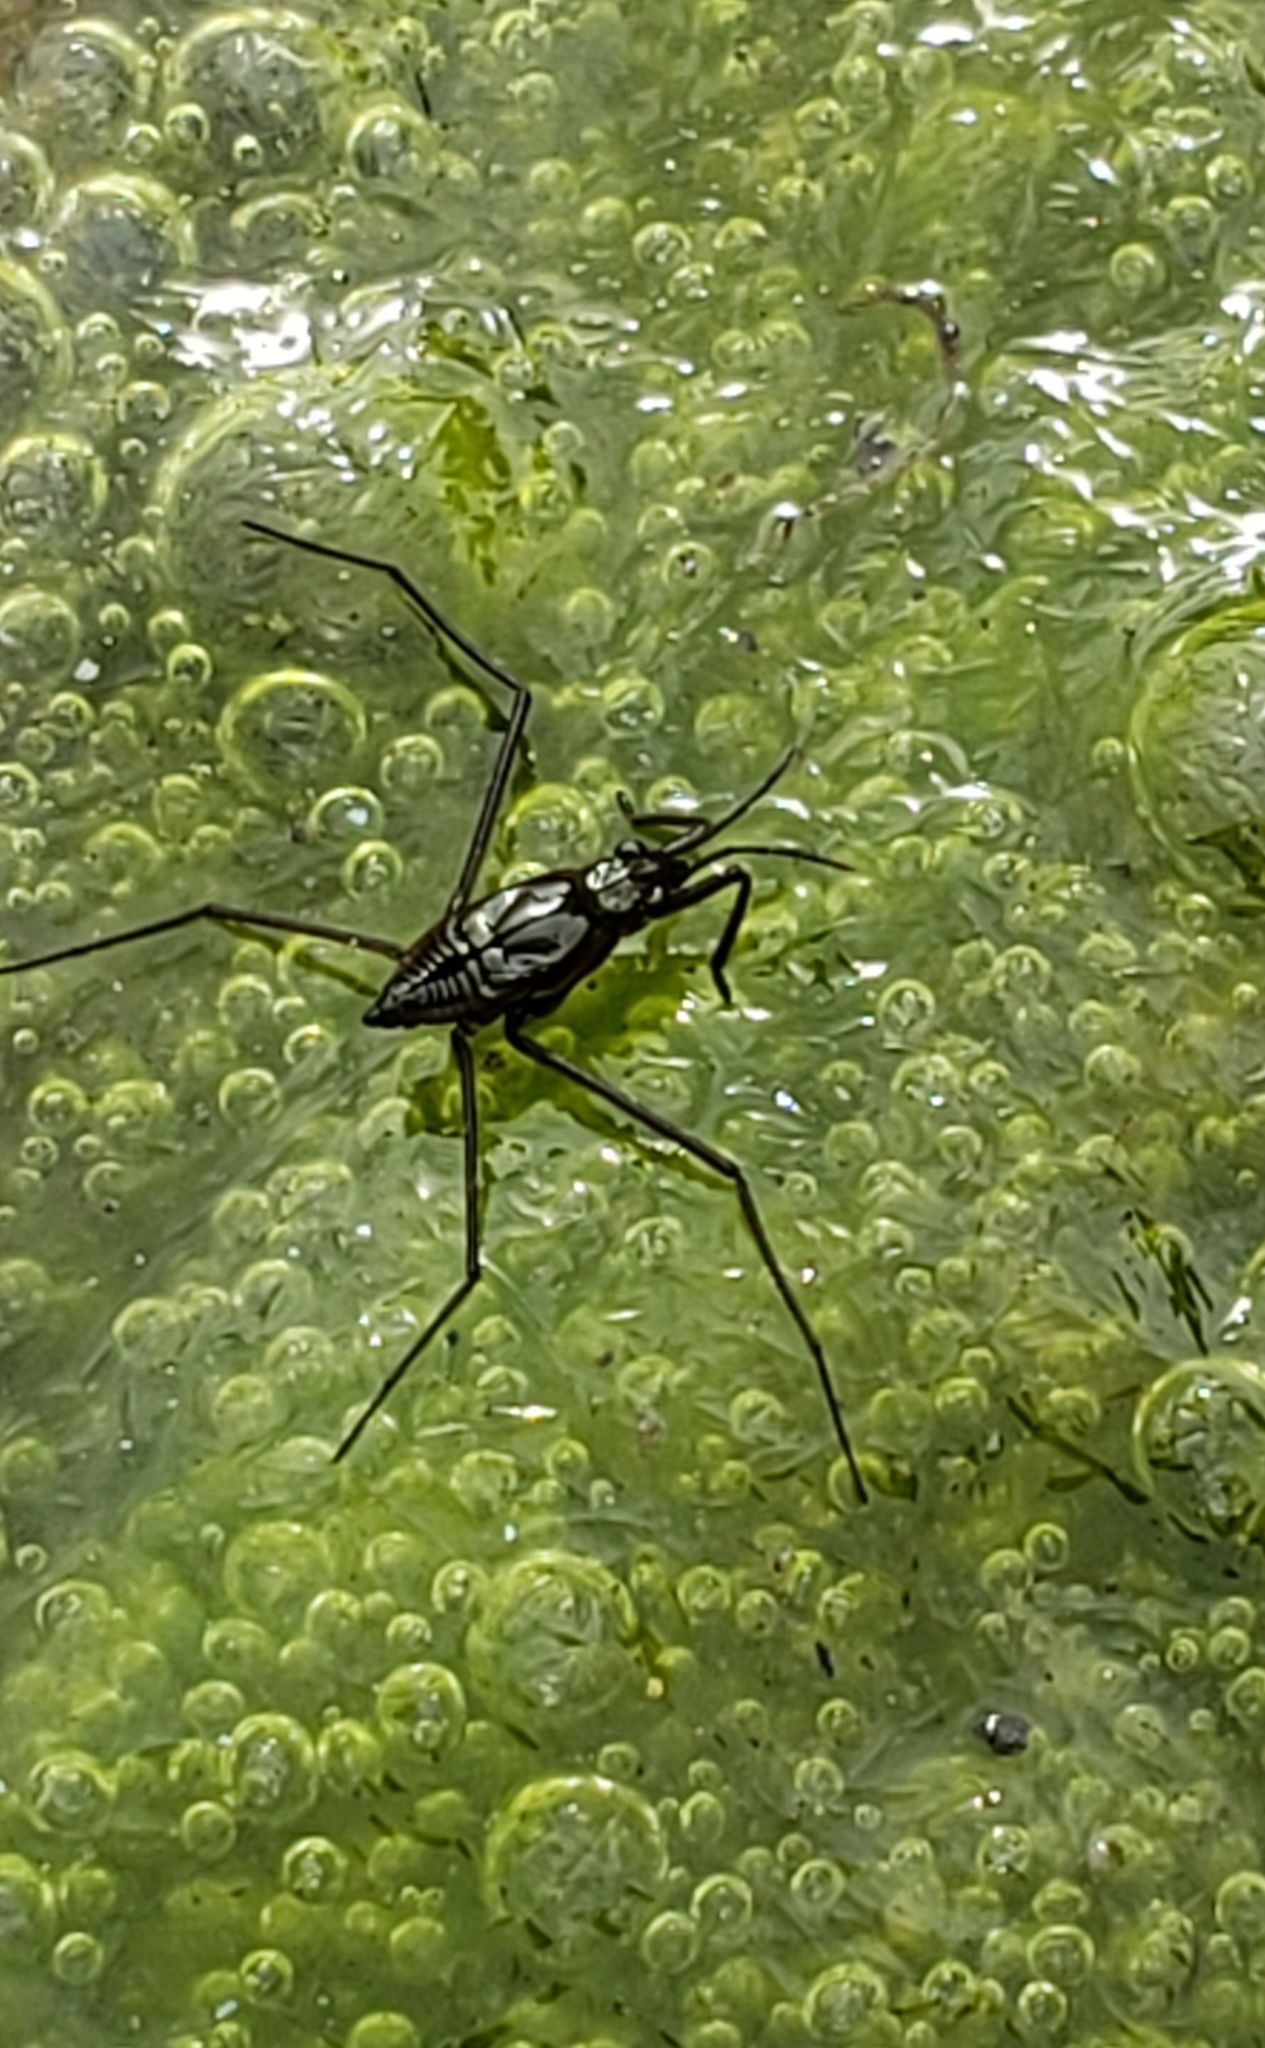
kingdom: Animalia
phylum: Arthropoda
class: Insecta
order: Hemiptera
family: Gerridae
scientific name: Gerridae
